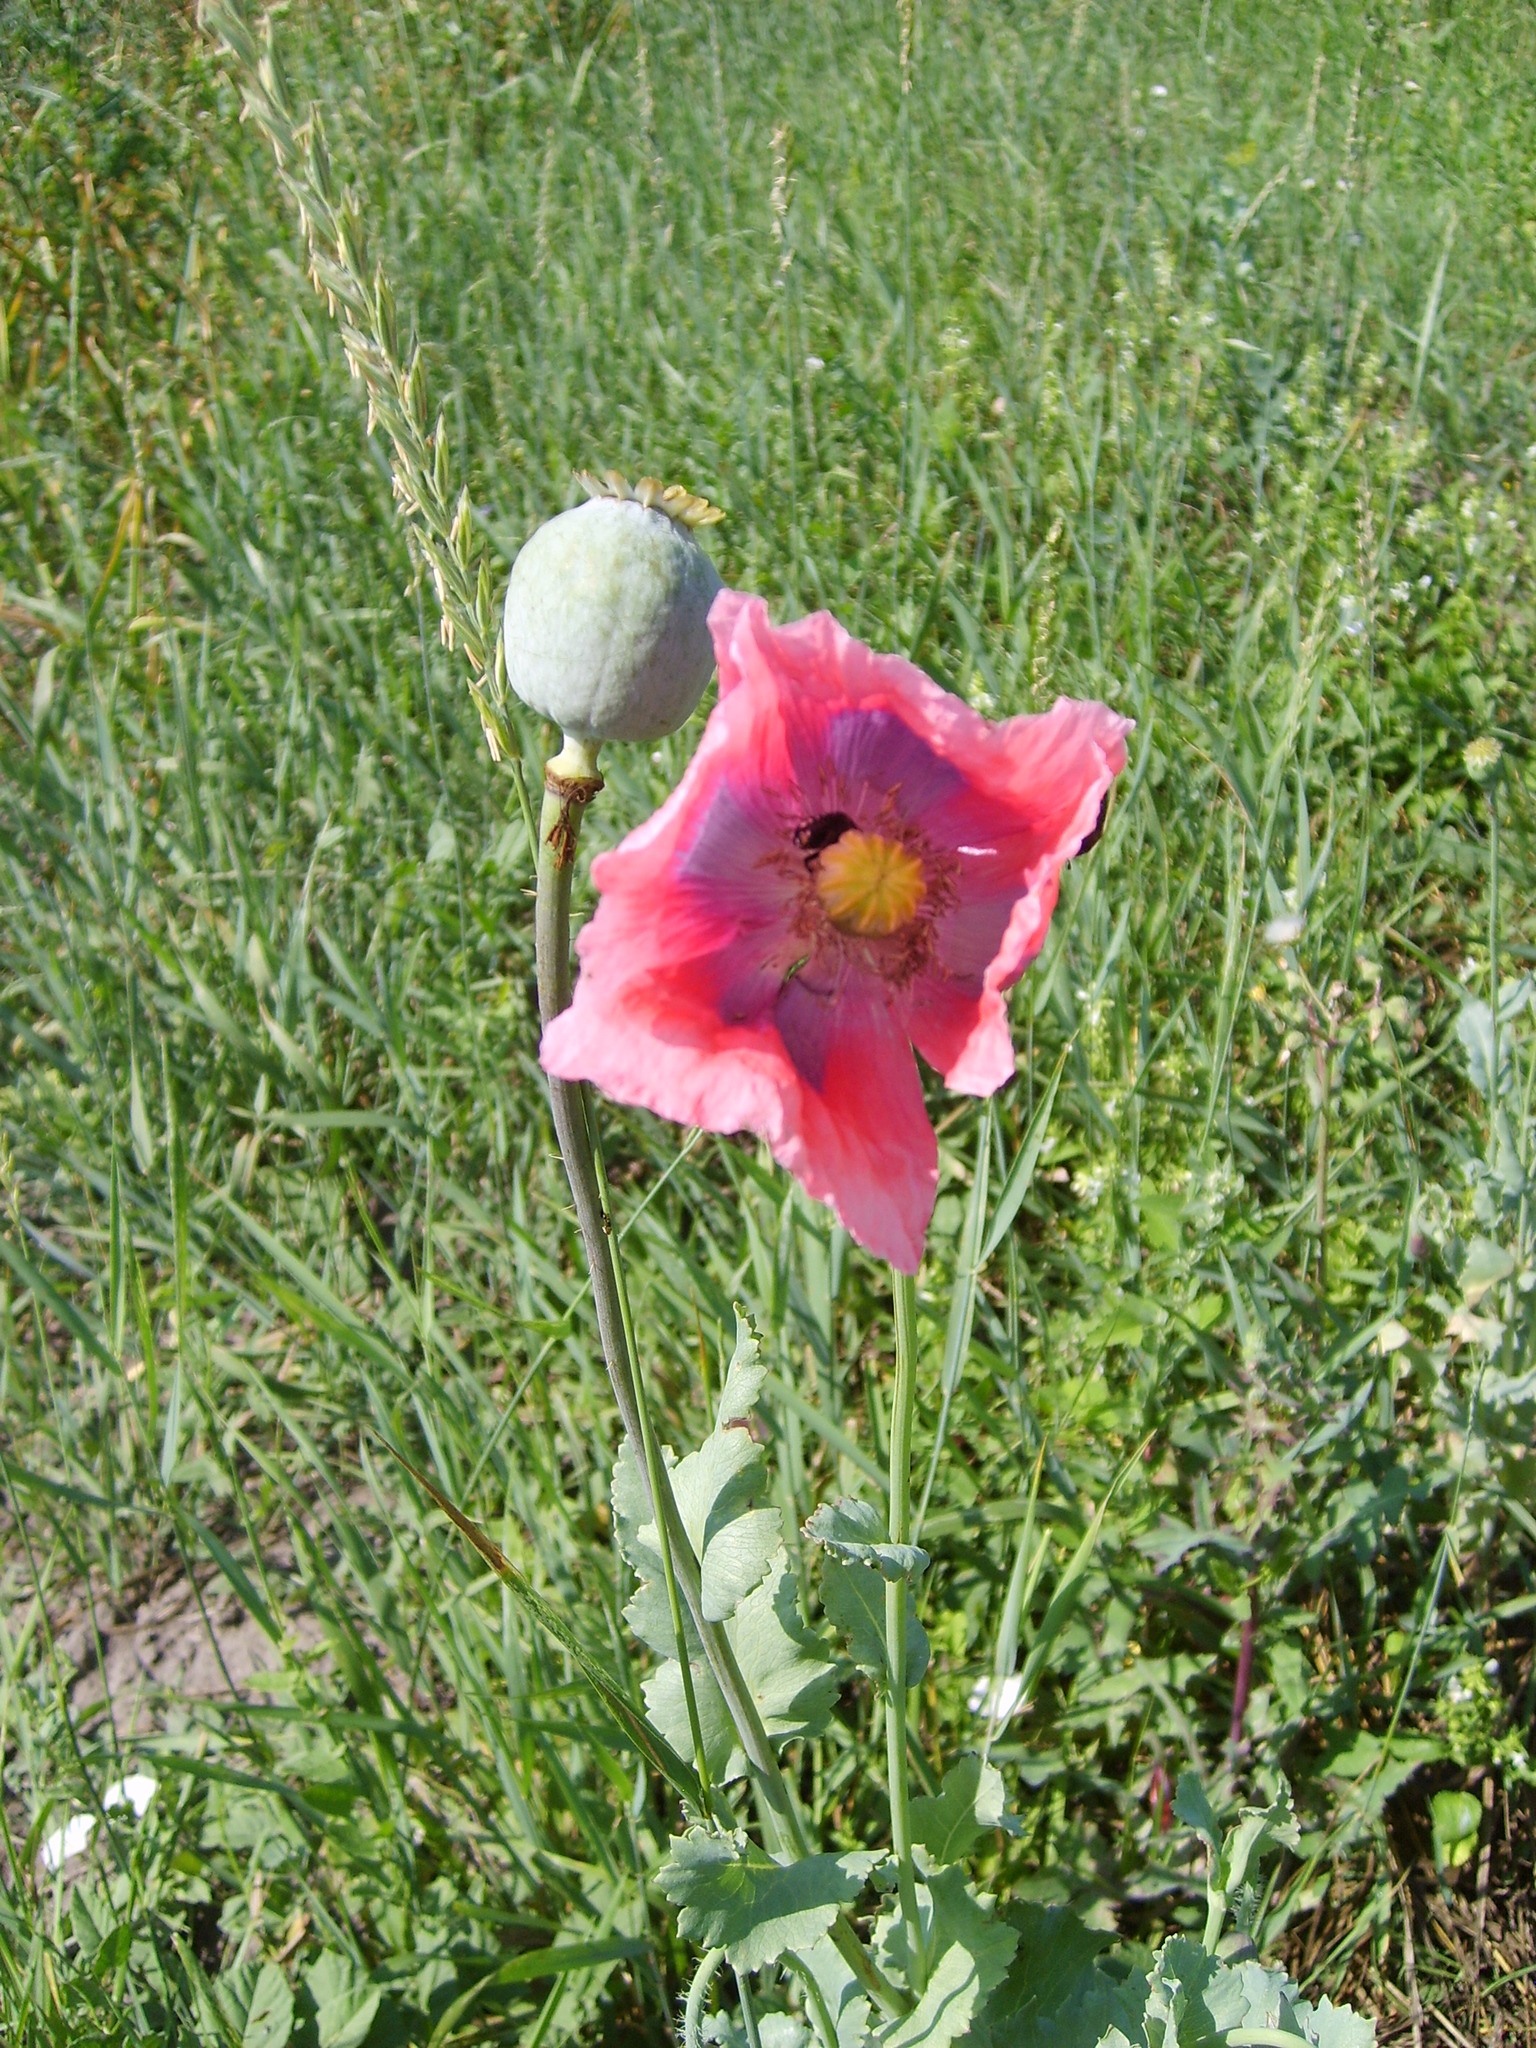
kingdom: Plantae
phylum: Tracheophyta
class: Magnoliopsida
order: Ranunculales
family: Papaveraceae
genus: Papaver
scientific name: Papaver somniferum
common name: Opium poppy
